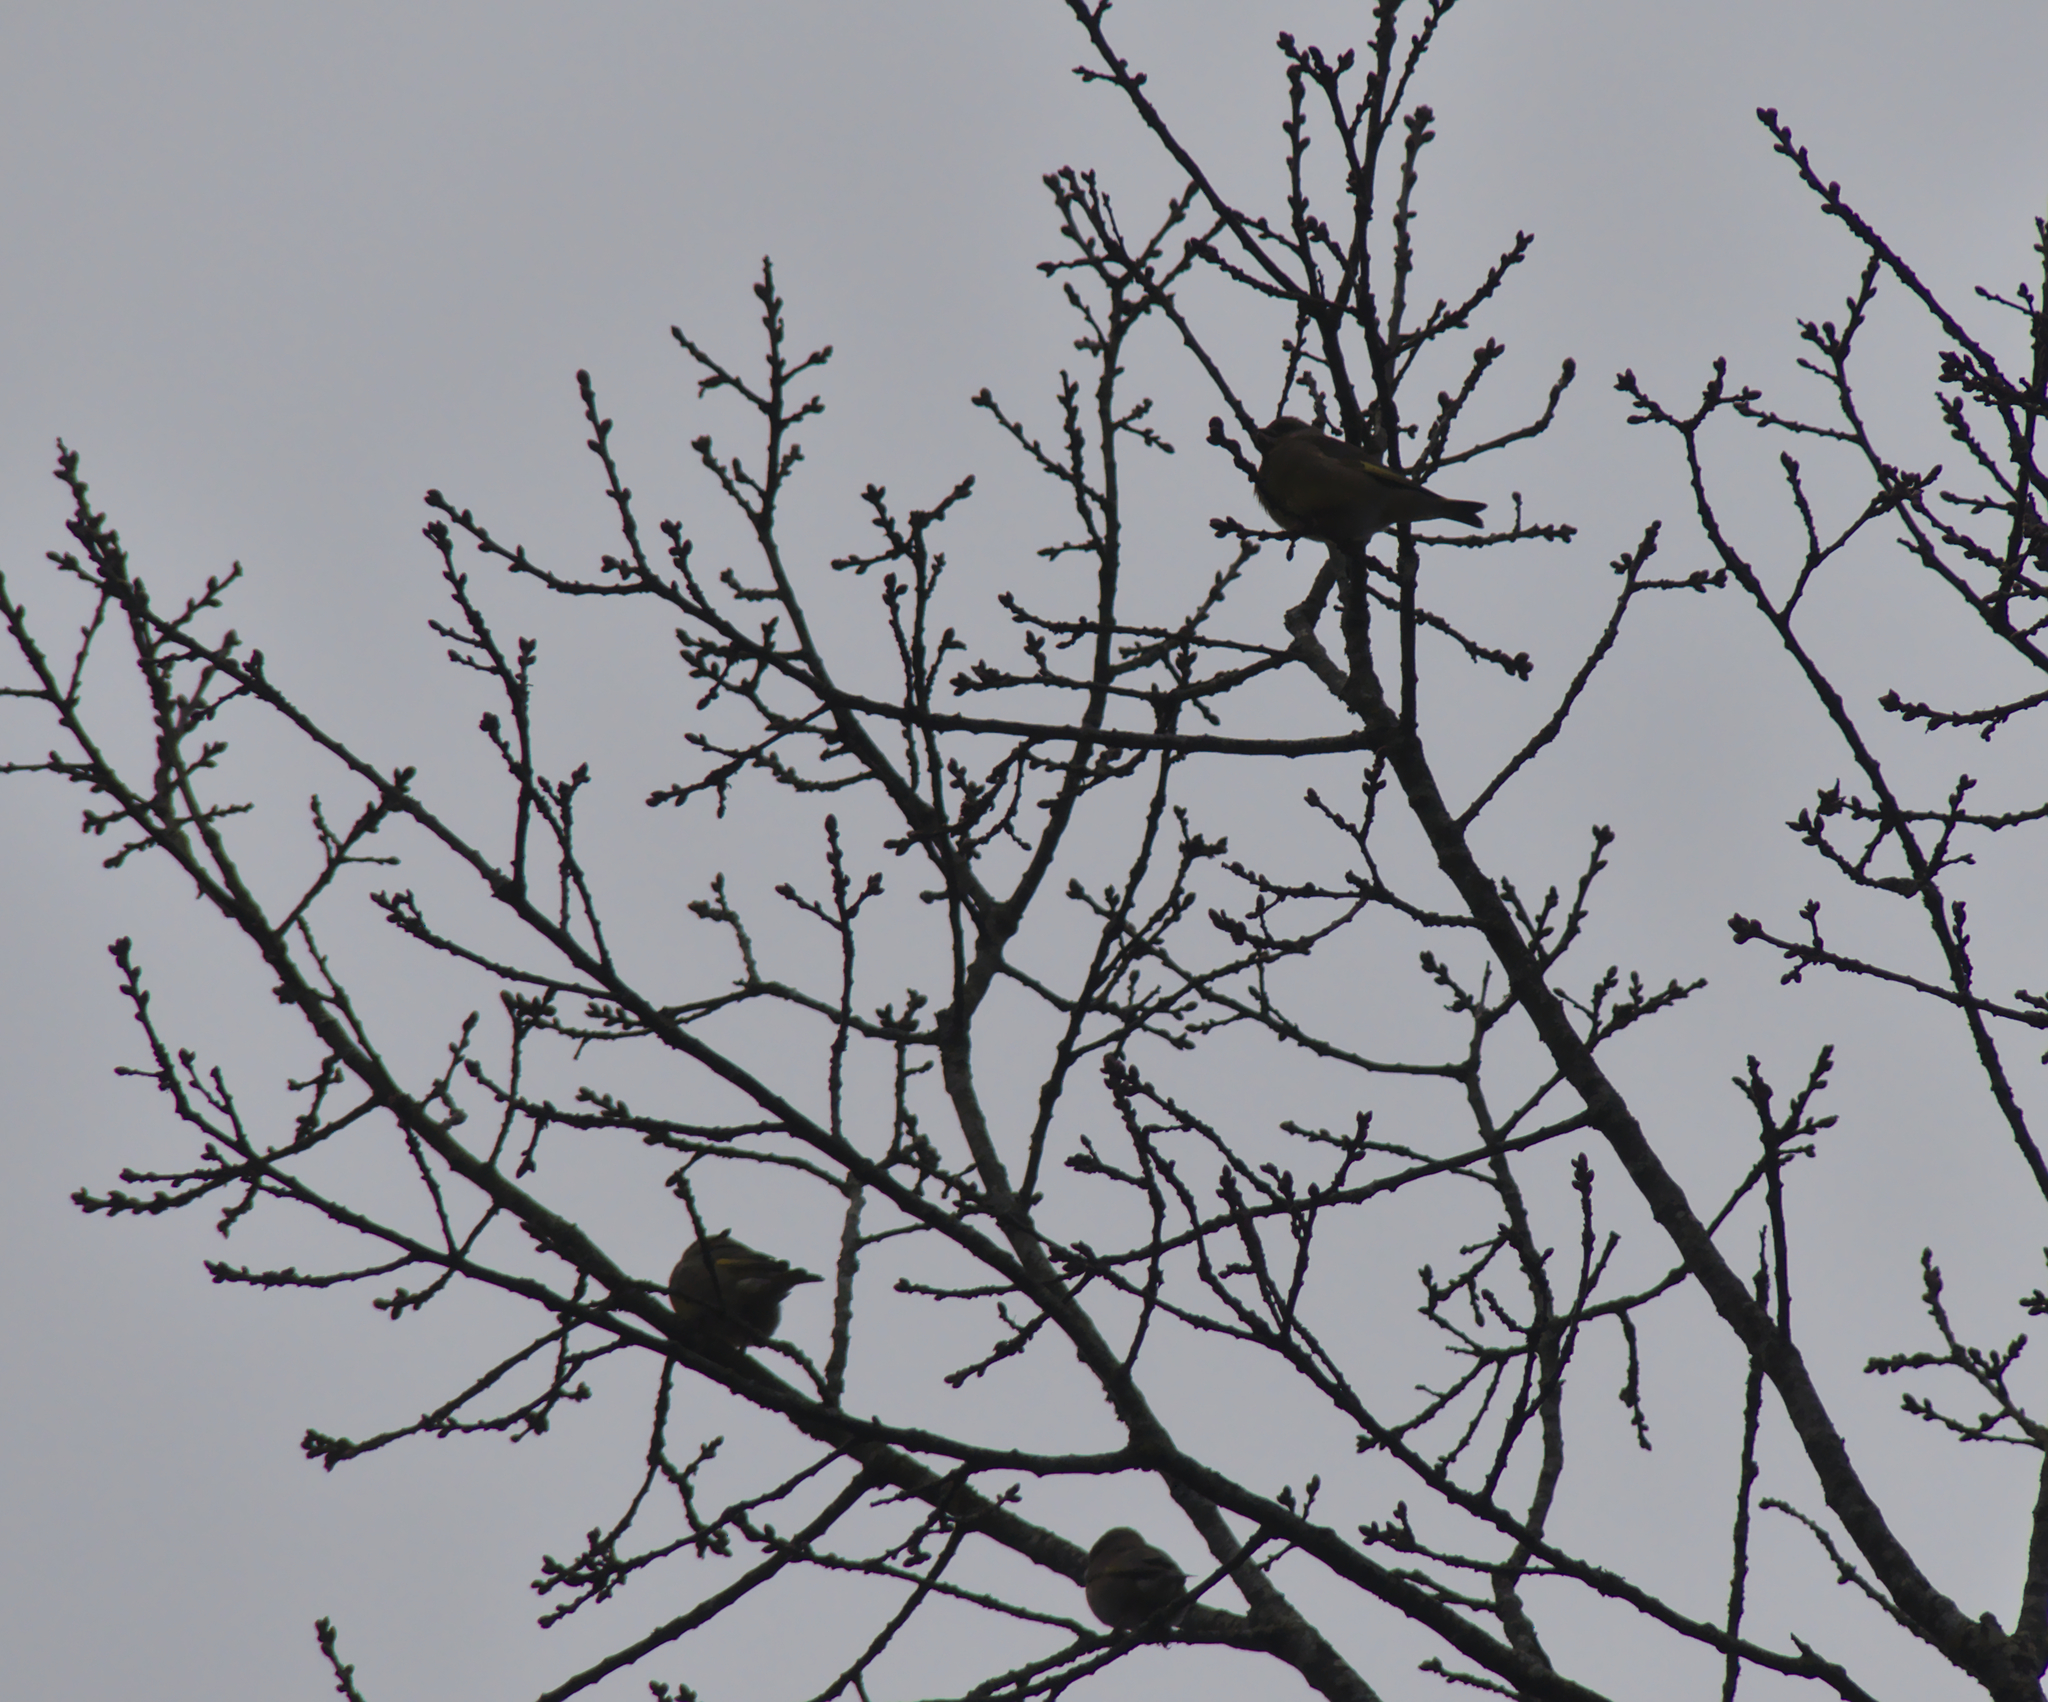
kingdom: Plantae
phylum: Tracheophyta
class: Liliopsida
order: Poales
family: Poaceae
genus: Chloris
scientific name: Chloris chloris
